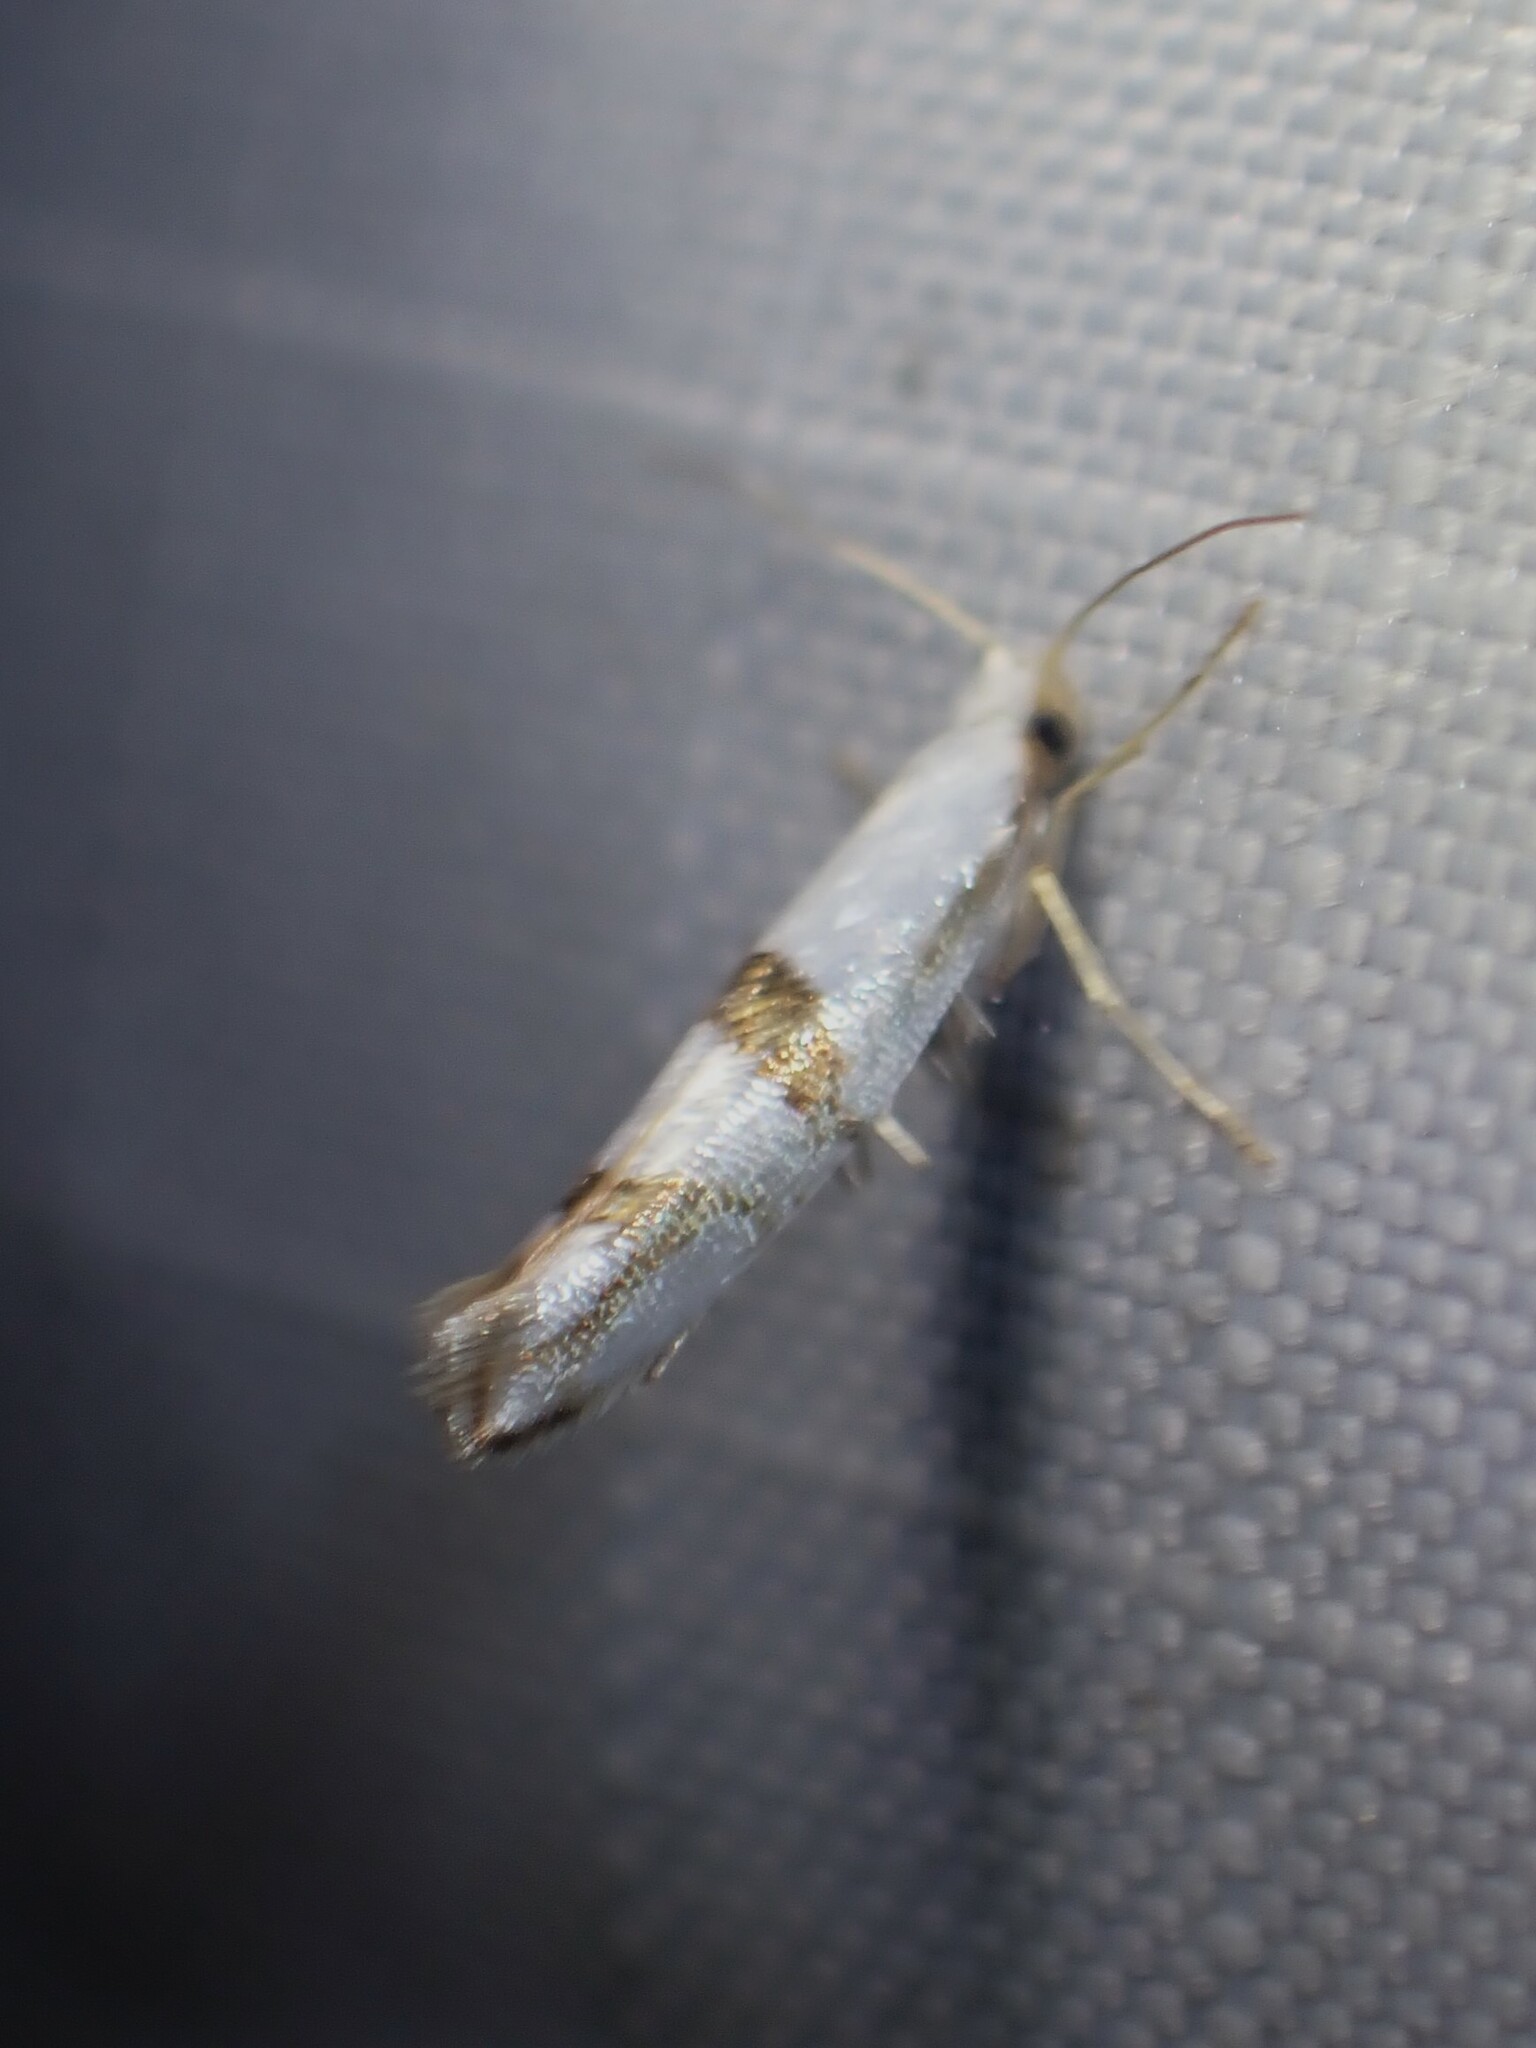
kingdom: Animalia
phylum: Arthropoda
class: Insecta
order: Lepidoptera
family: Argyresthiidae
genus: Argyresthia
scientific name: Argyresthia oreasella
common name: Cherry shoot borer moth
